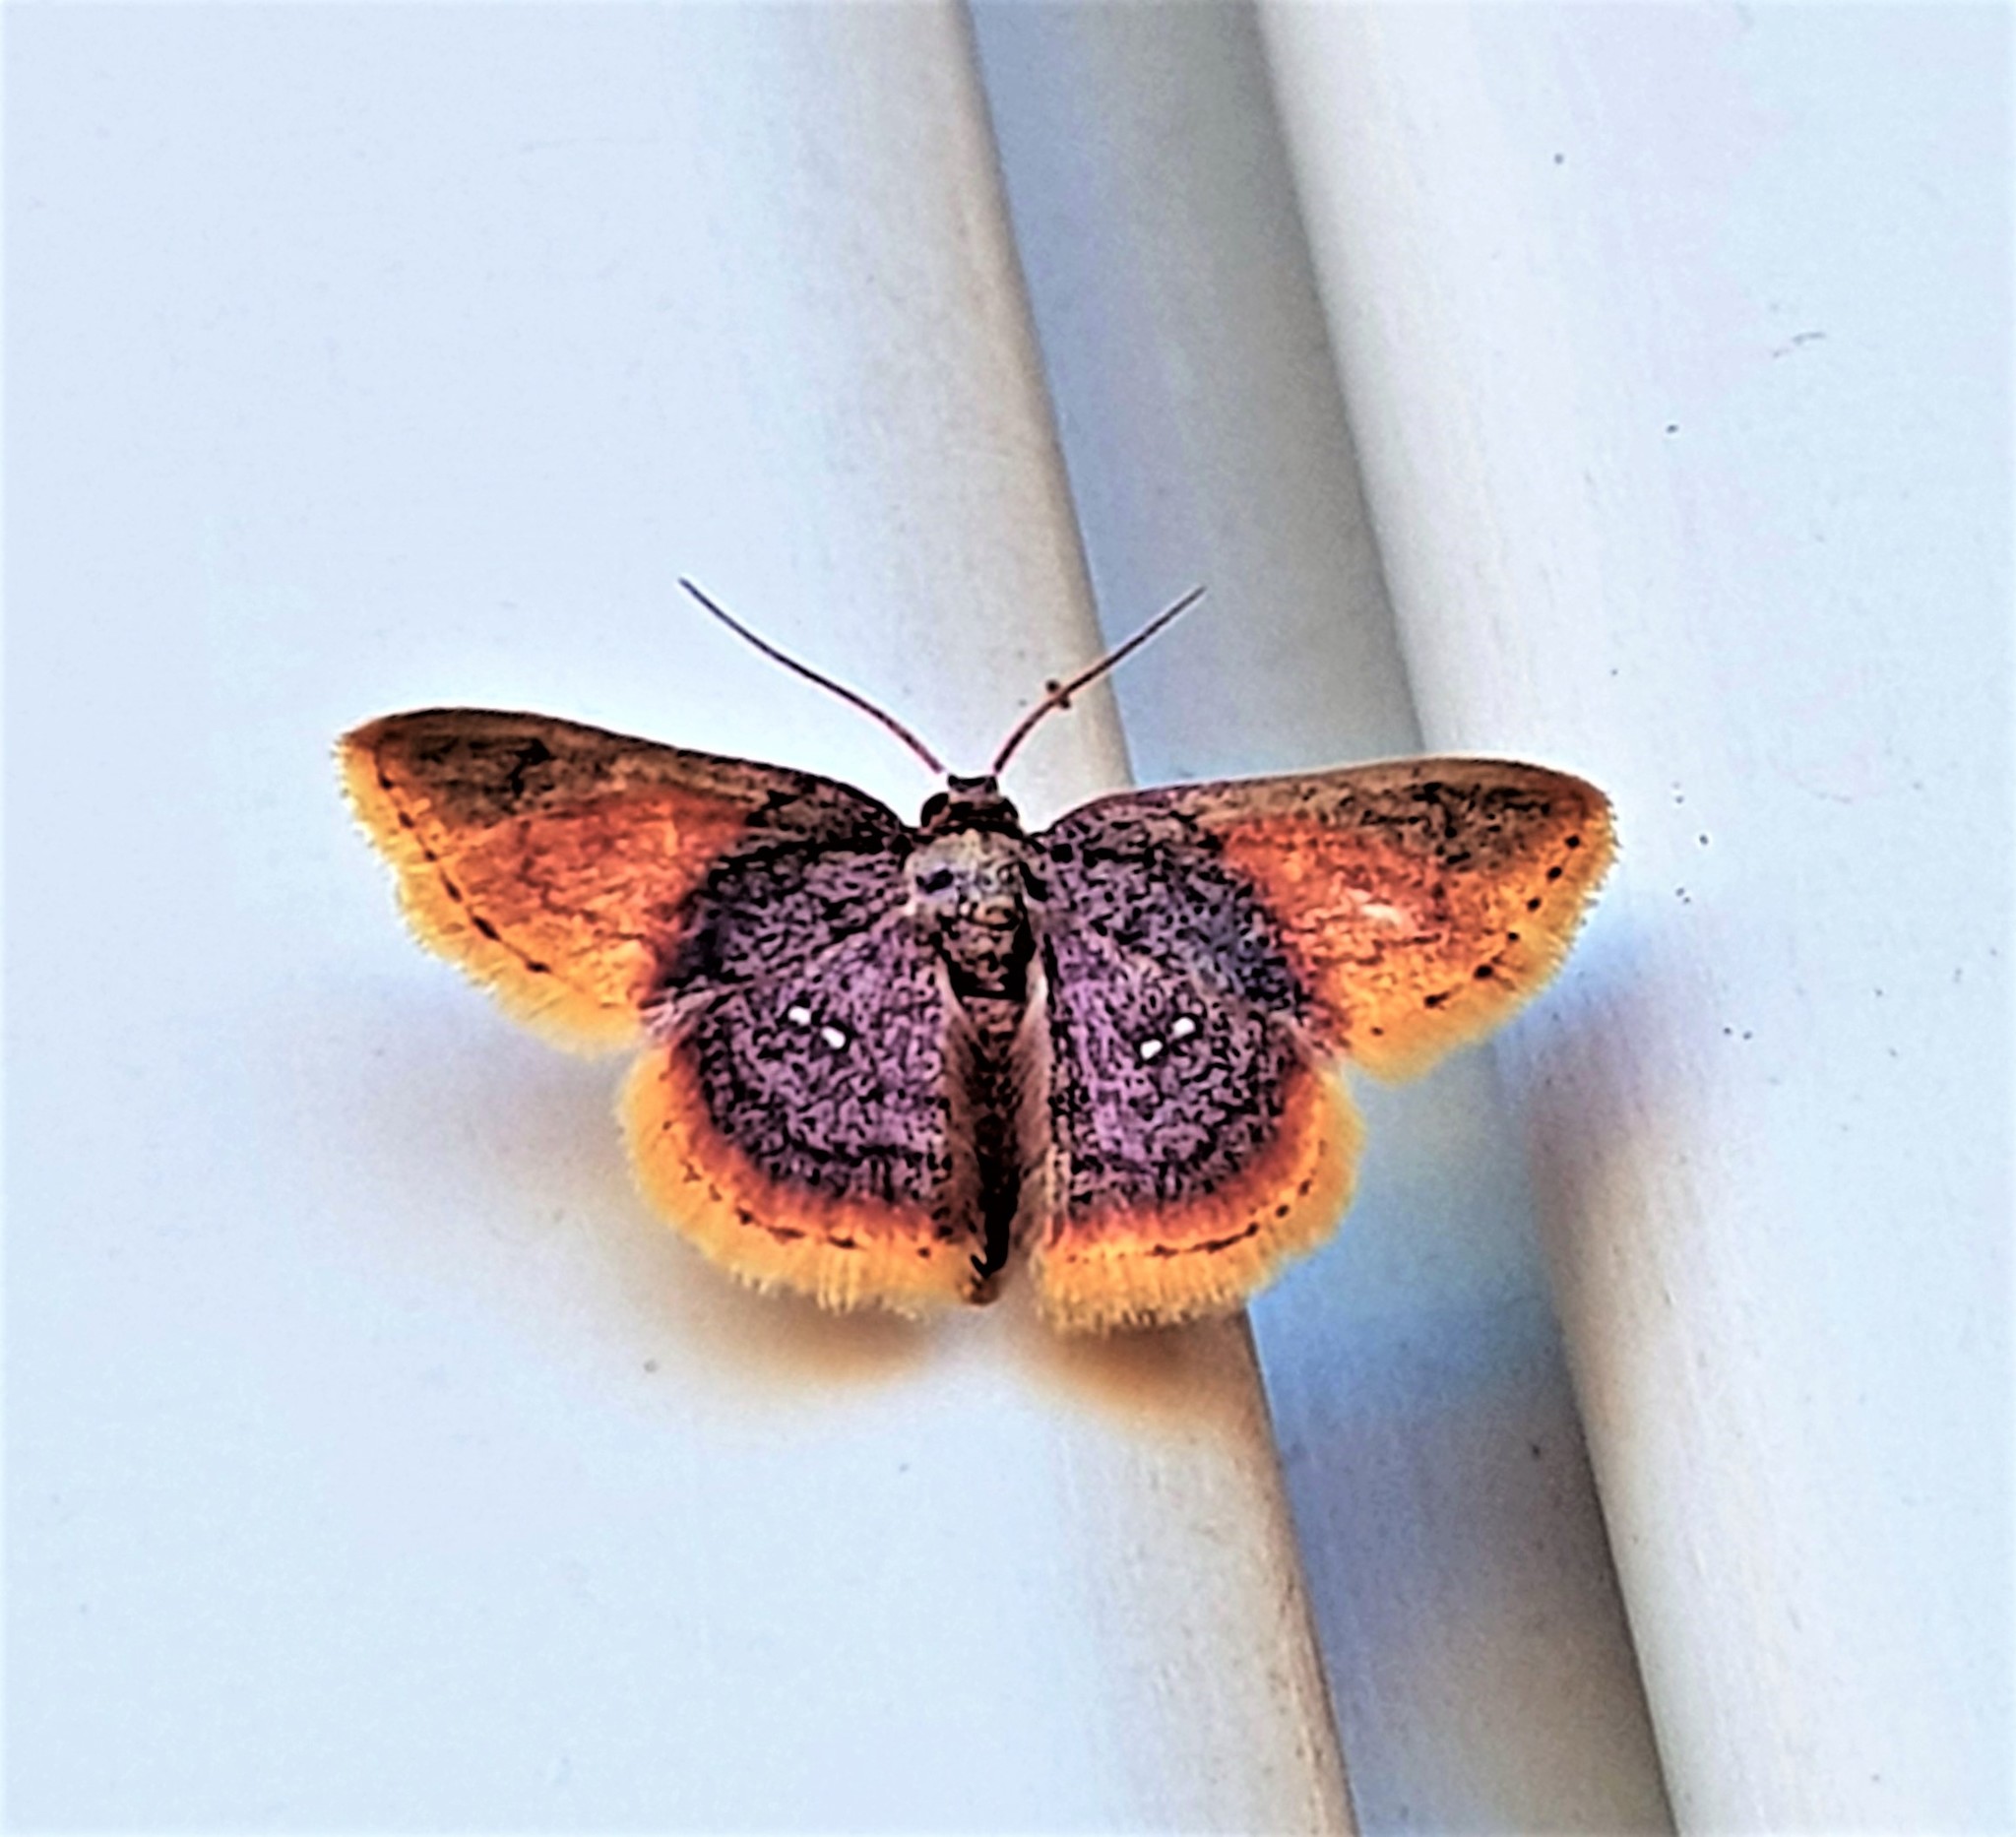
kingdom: Animalia
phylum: Arthropoda
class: Insecta
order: Lepidoptera
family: Geometridae
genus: Tricentra
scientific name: Tricentra fumata
